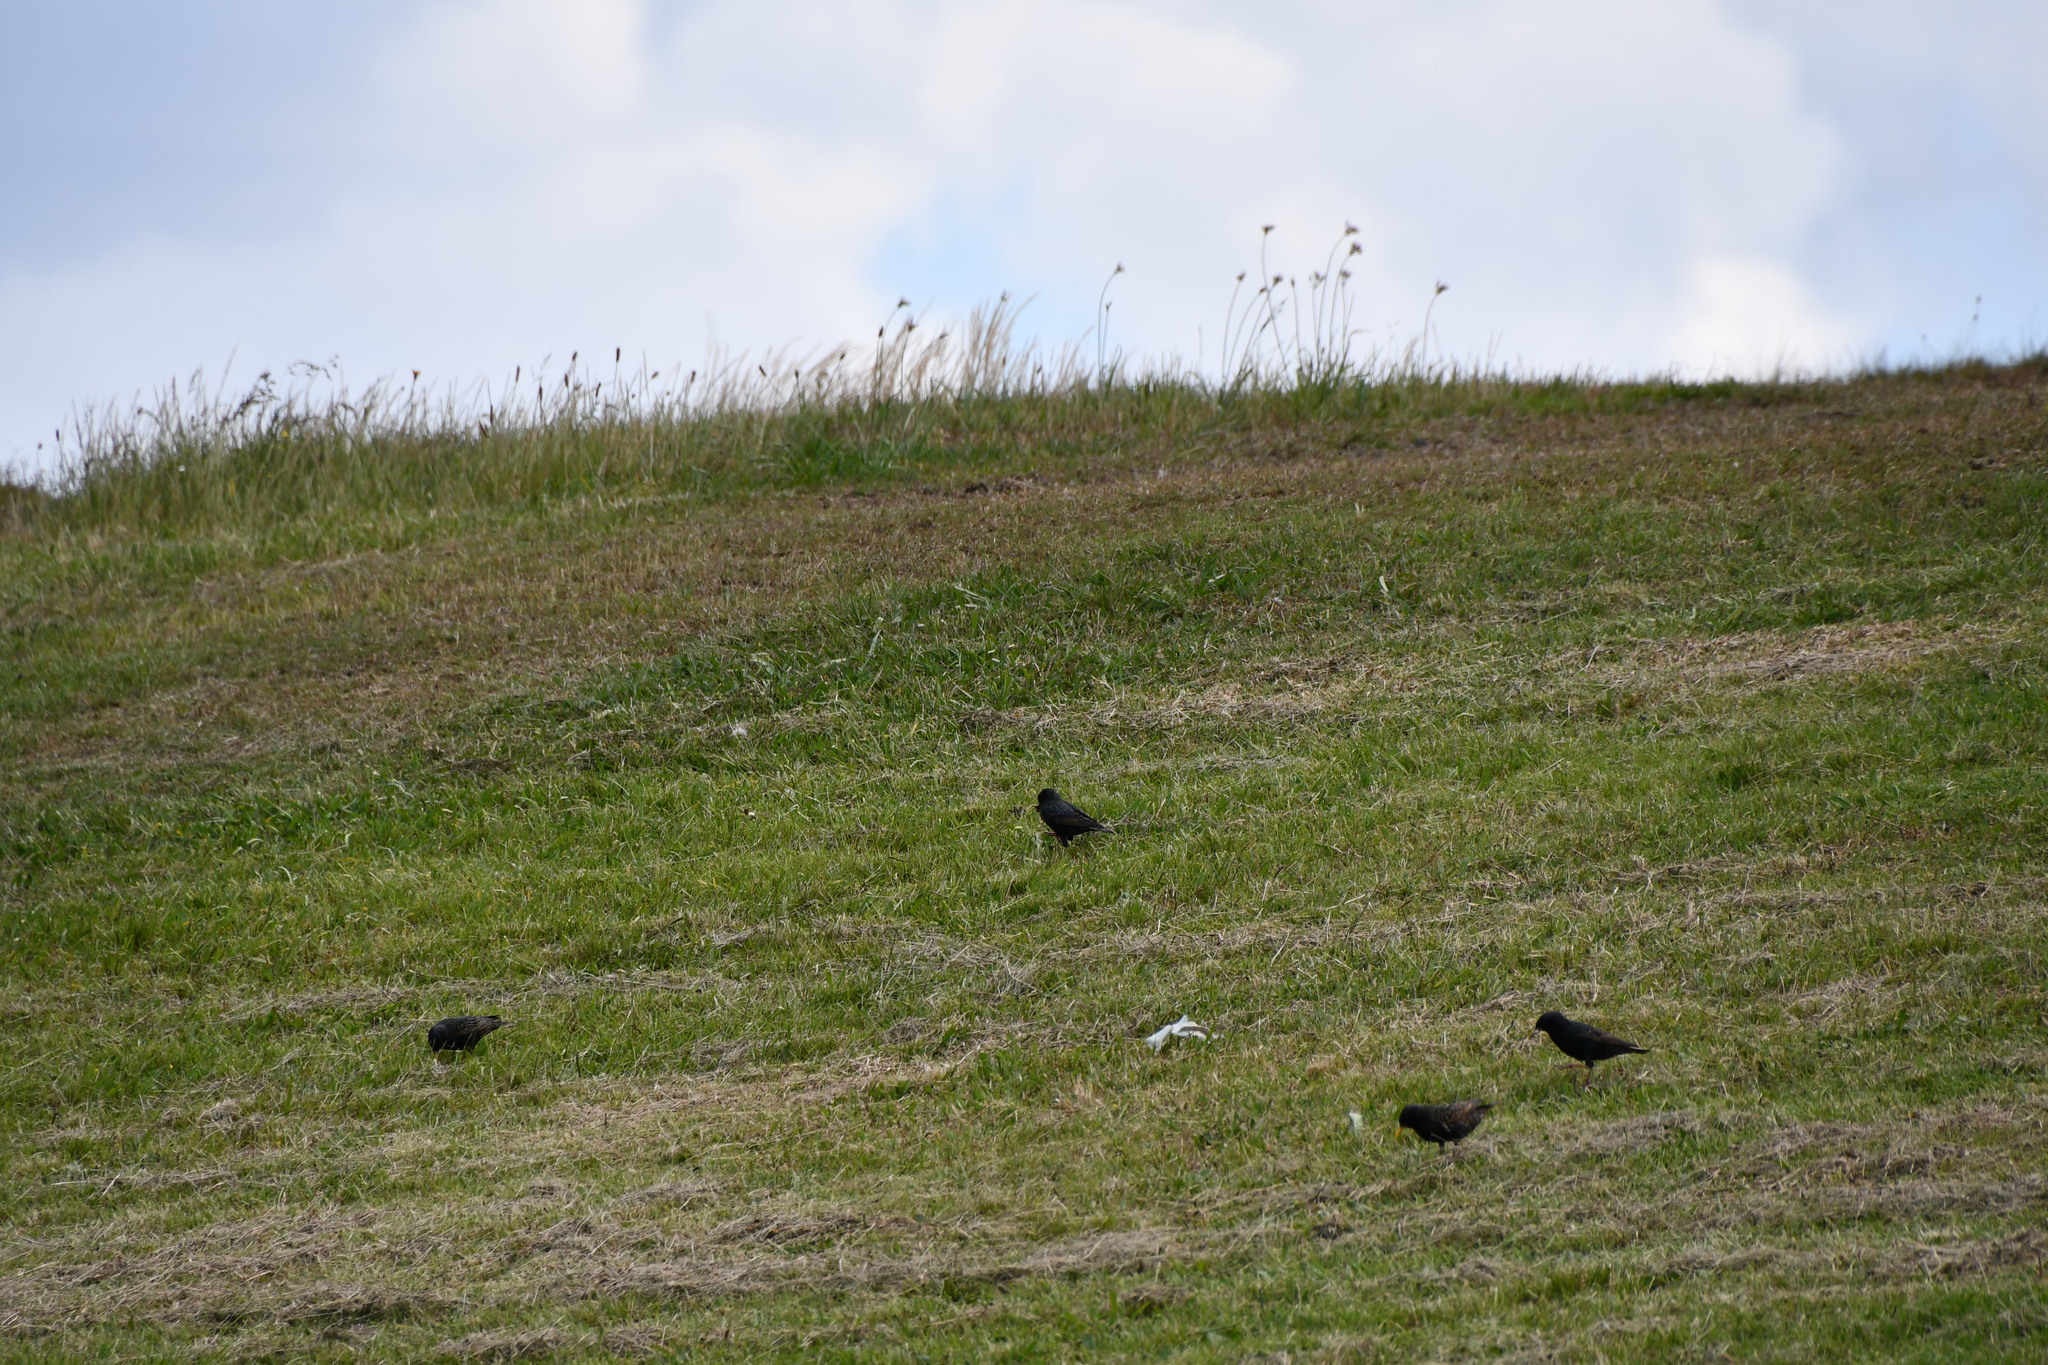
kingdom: Animalia
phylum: Chordata
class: Aves
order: Passeriformes
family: Sturnidae
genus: Sturnus
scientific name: Sturnus vulgaris
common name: Common starling
